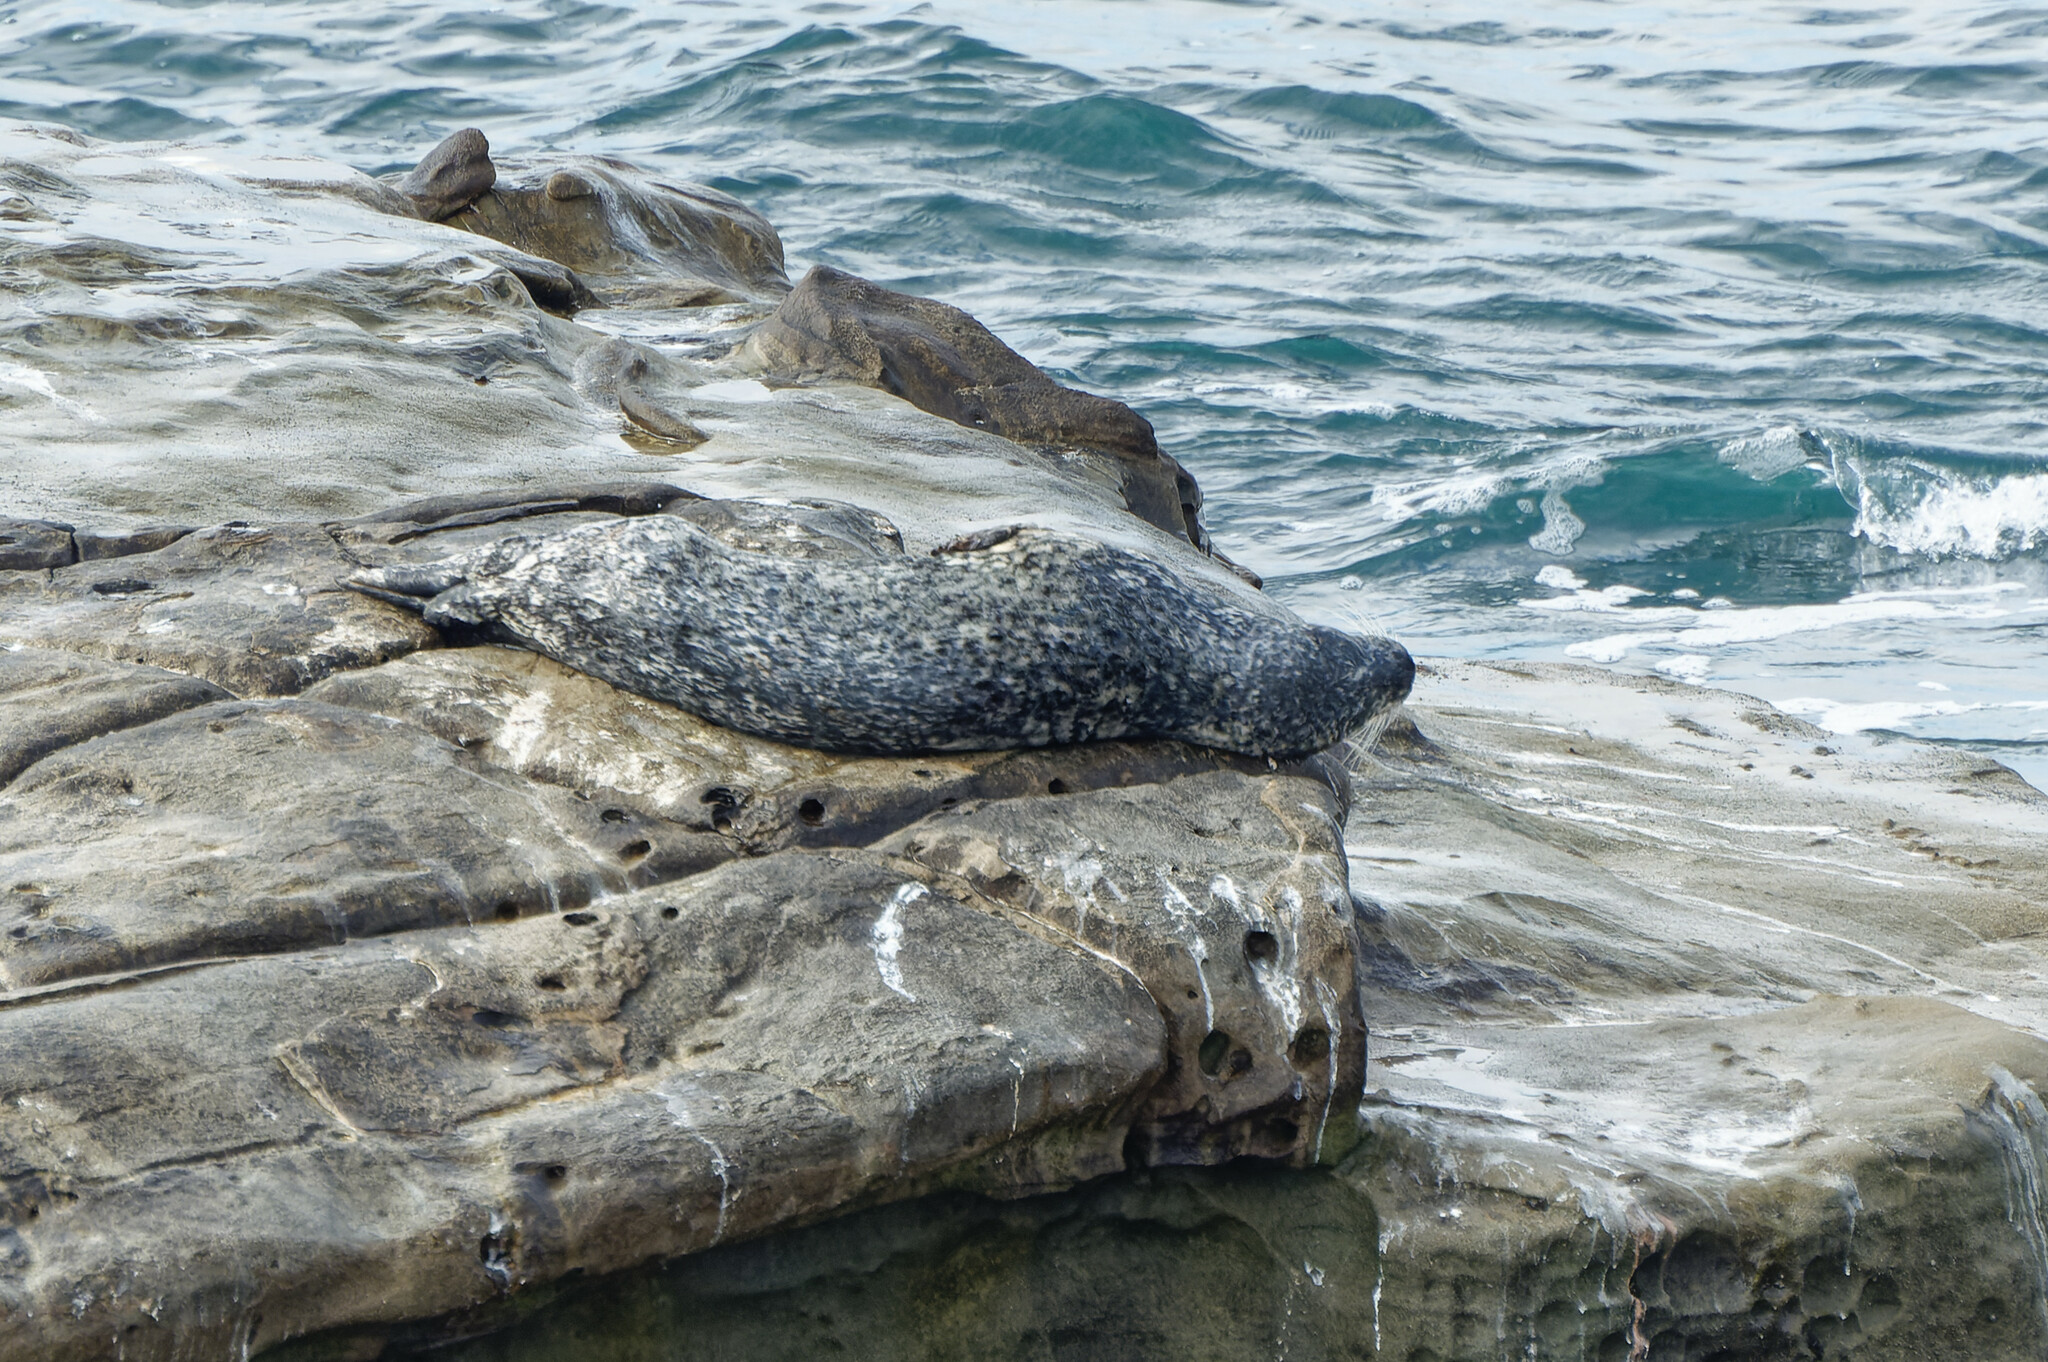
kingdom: Animalia
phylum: Chordata
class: Mammalia
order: Carnivora
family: Phocidae
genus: Phoca
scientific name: Phoca vitulina
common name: Harbor seal
